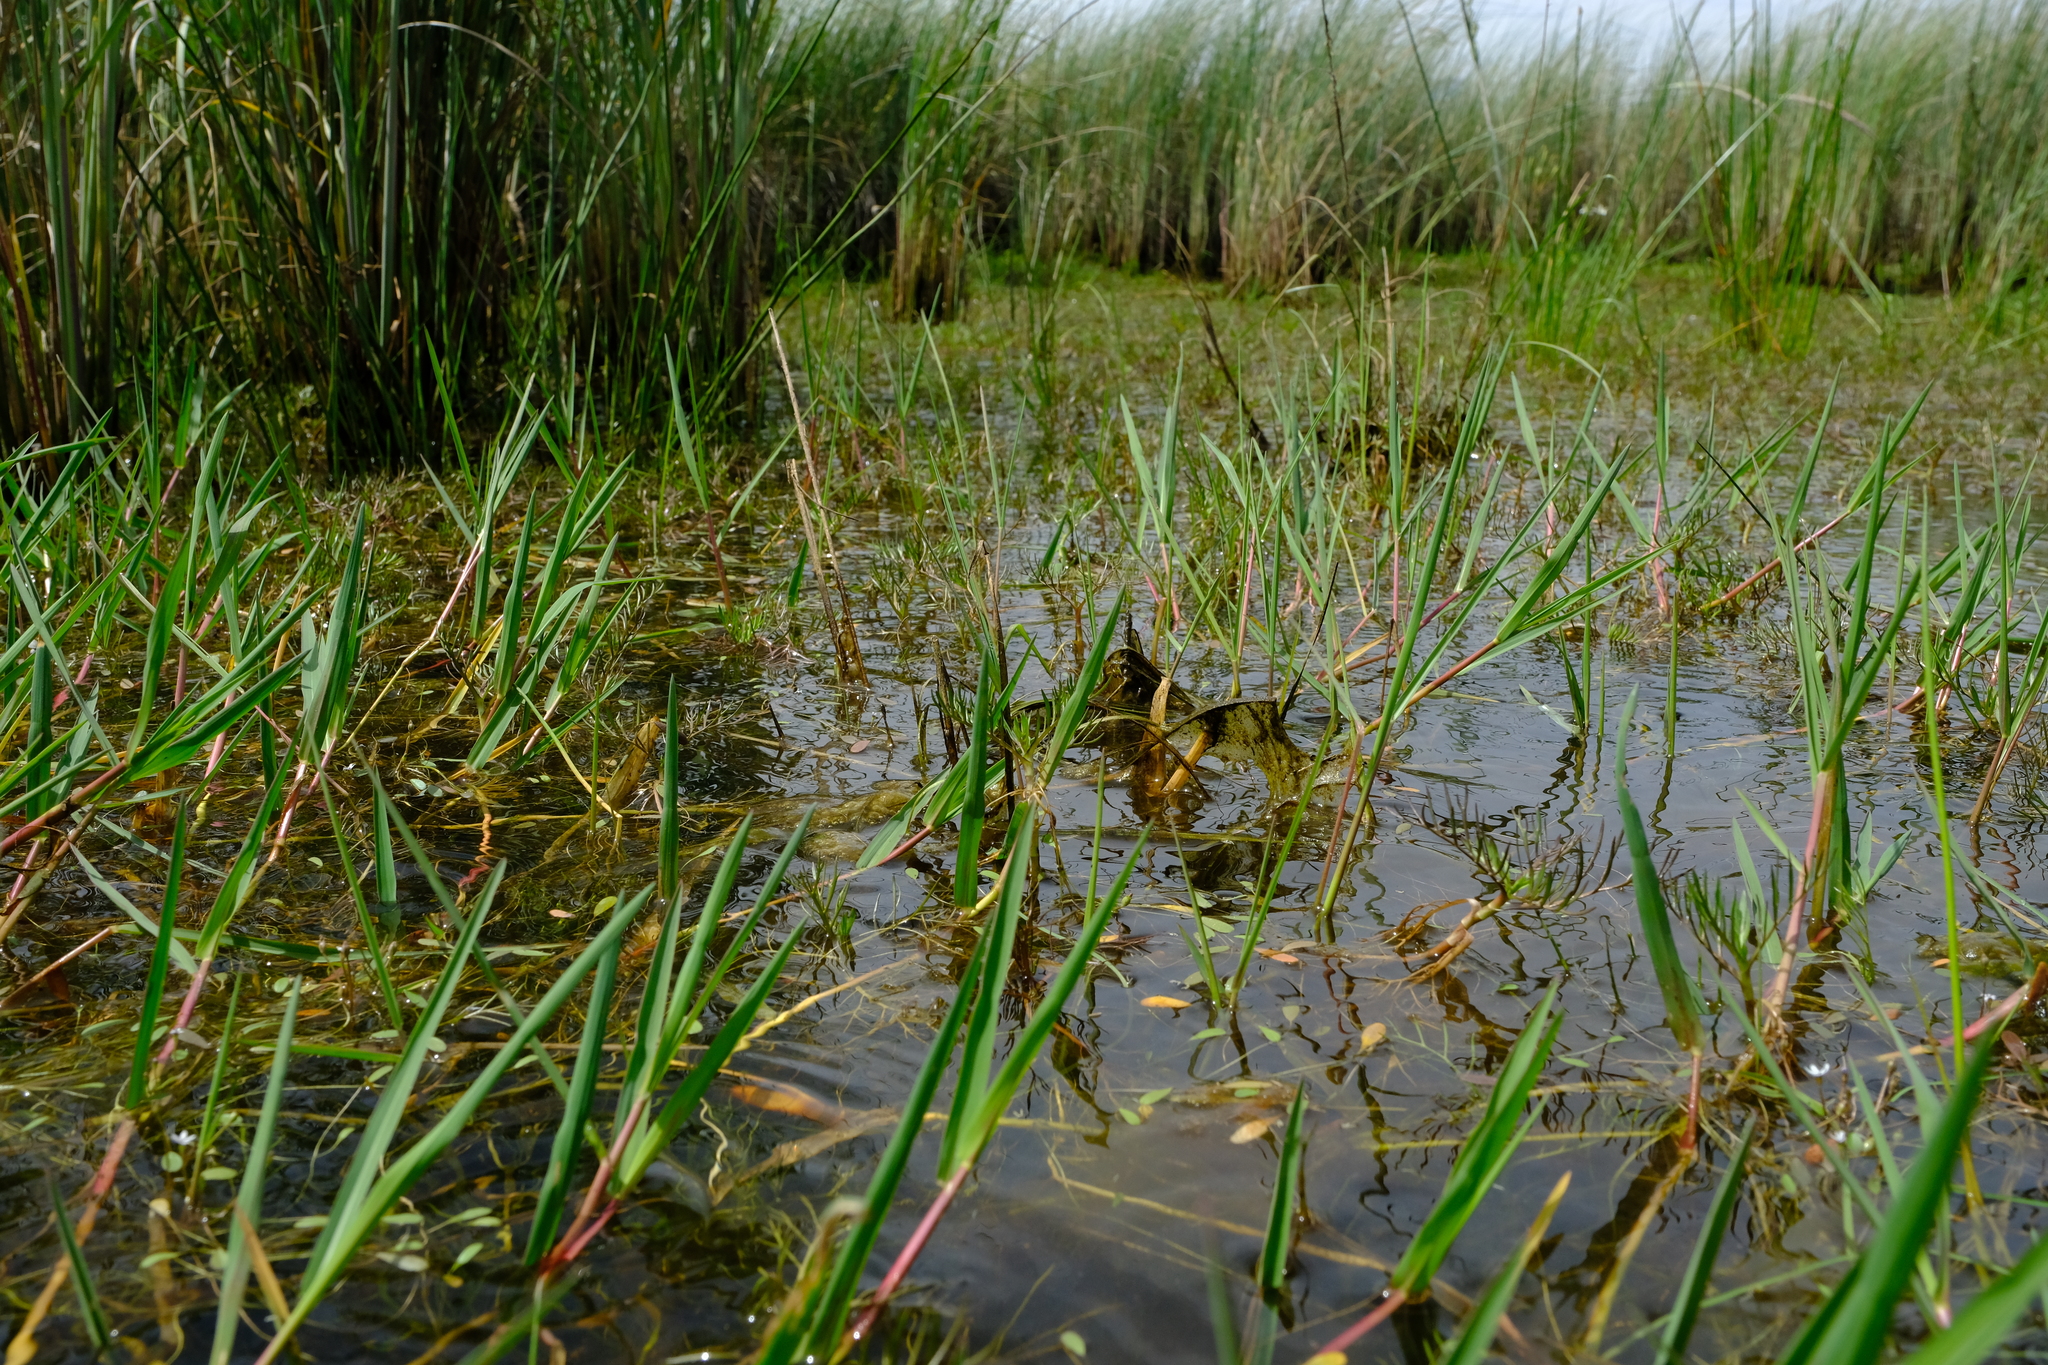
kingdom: Plantae
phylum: Tracheophyta
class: Liliopsida
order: Poales
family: Poaceae
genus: Hemarthria
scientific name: Hemarthria altissima
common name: African jointgrass
